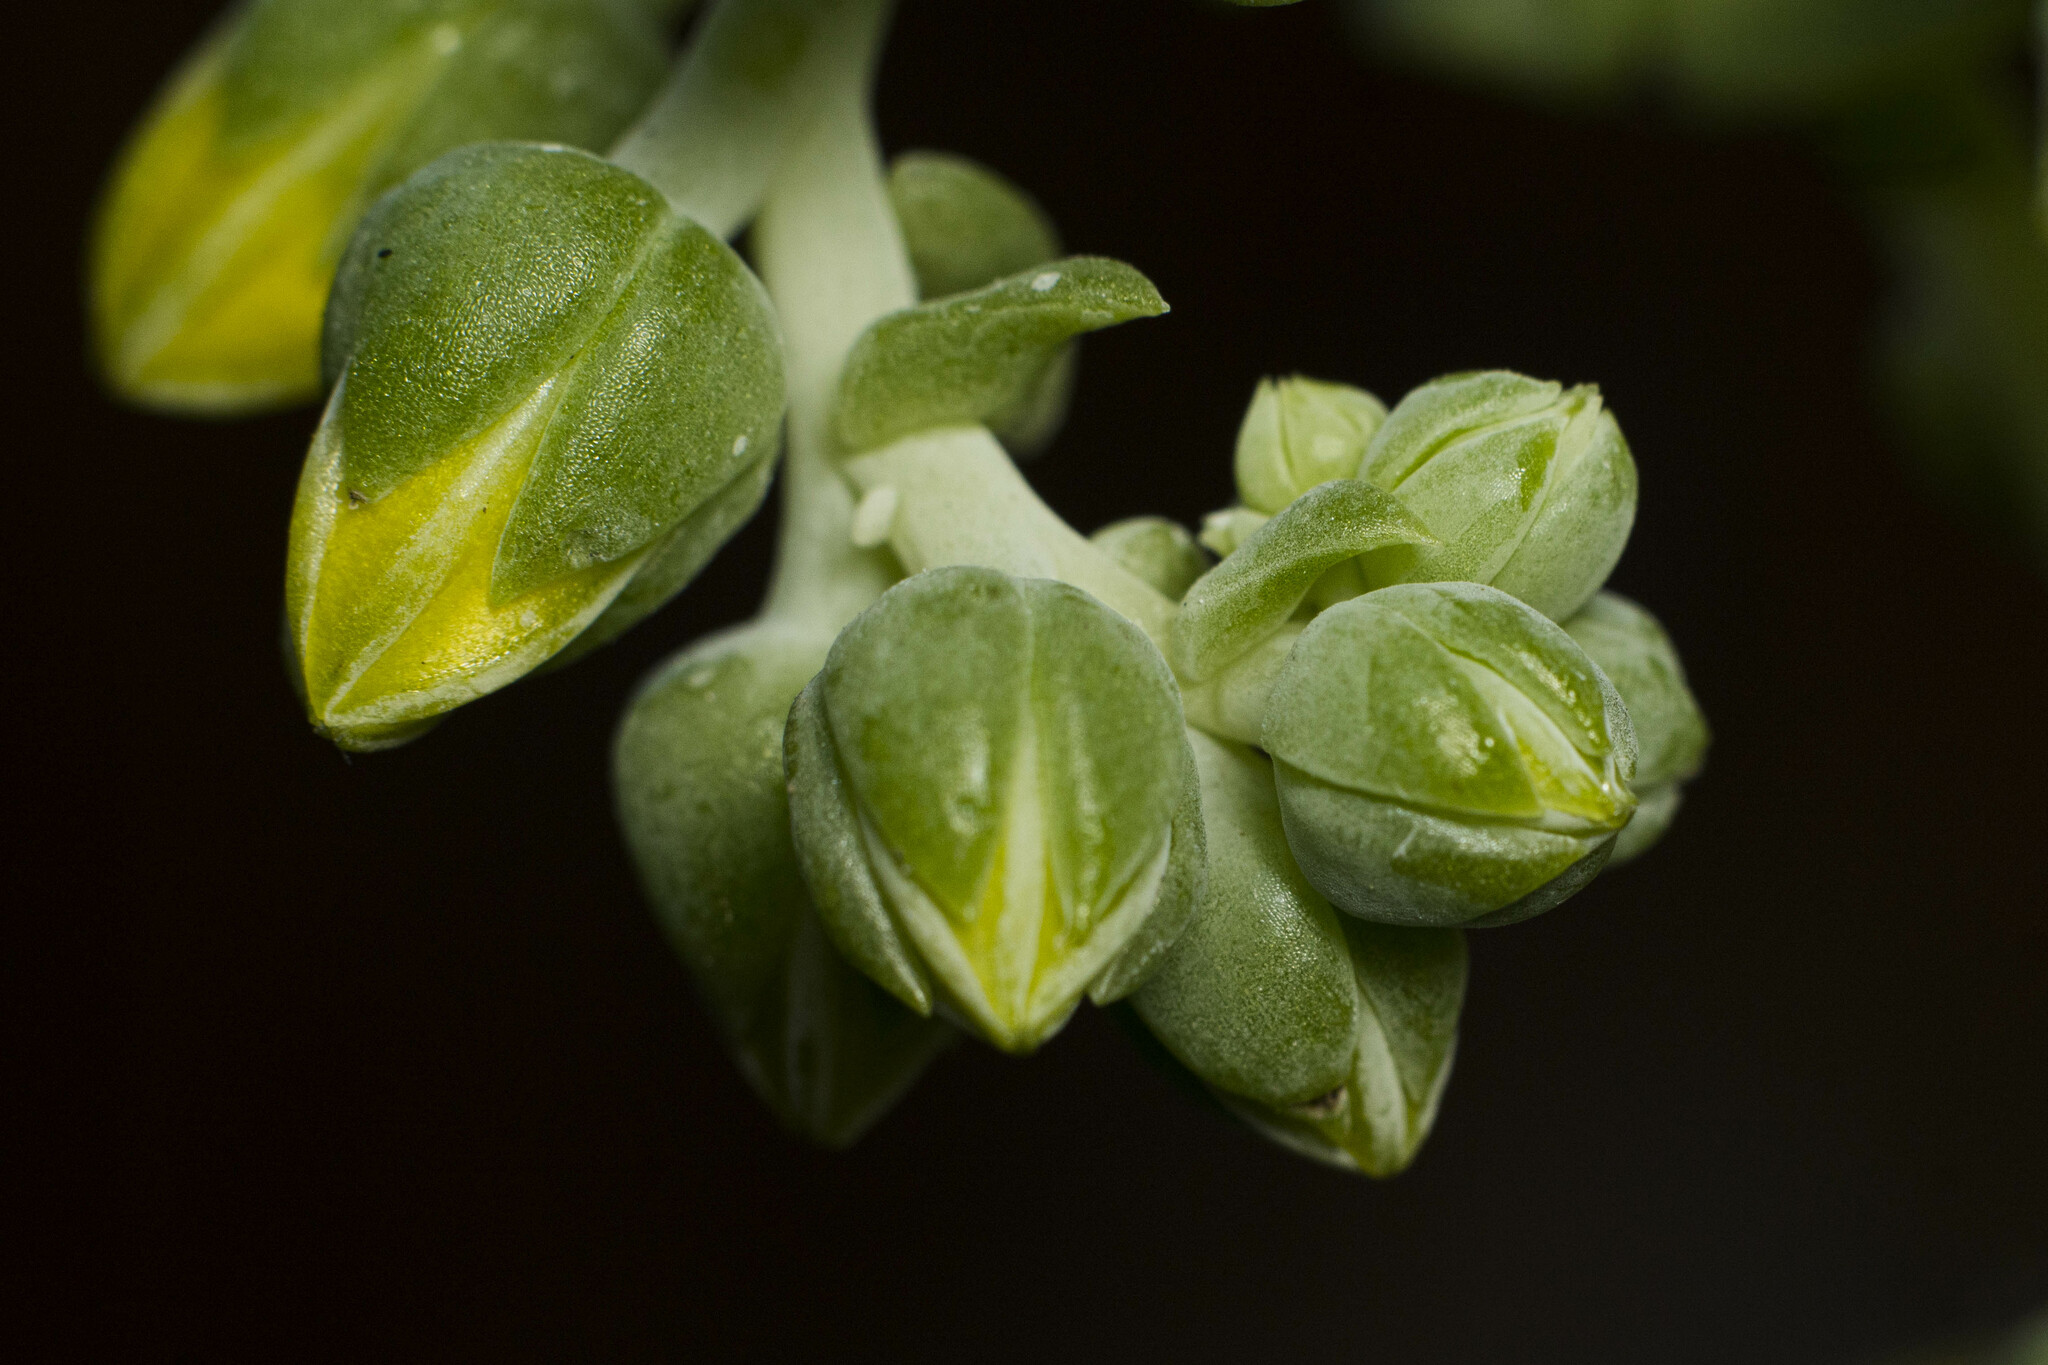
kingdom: Plantae
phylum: Tracheophyta
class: Magnoliopsida
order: Saxifragales
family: Crassulaceae
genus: Dudleya
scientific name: Dudleya cymosa
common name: Canyon dudleya
